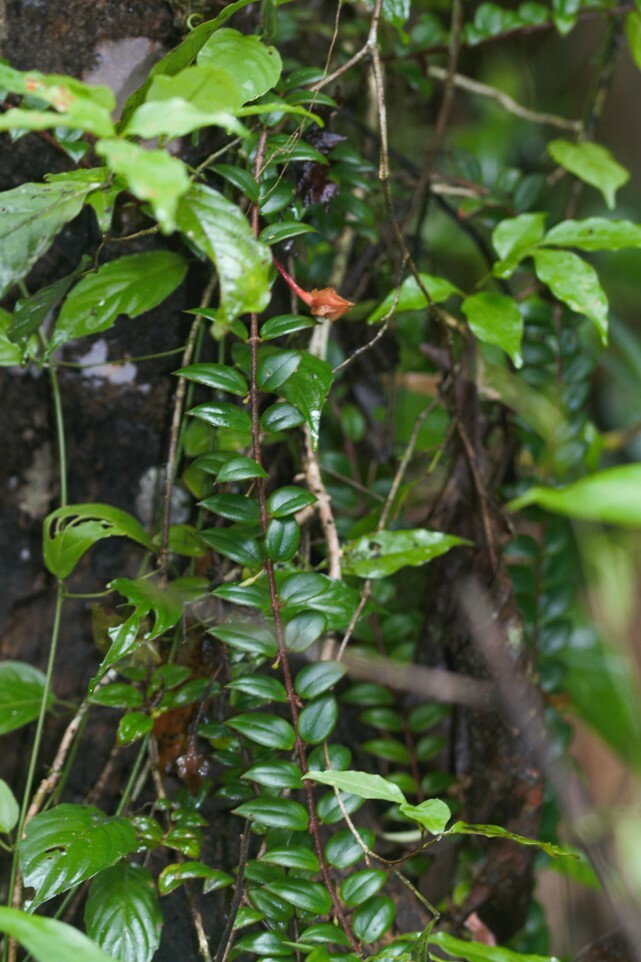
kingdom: Plantae
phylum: Tracheophyta
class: Magnoliopsida
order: Lamiales
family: Gesneriaceae
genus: Columnea
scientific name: Columnea oerstediana
